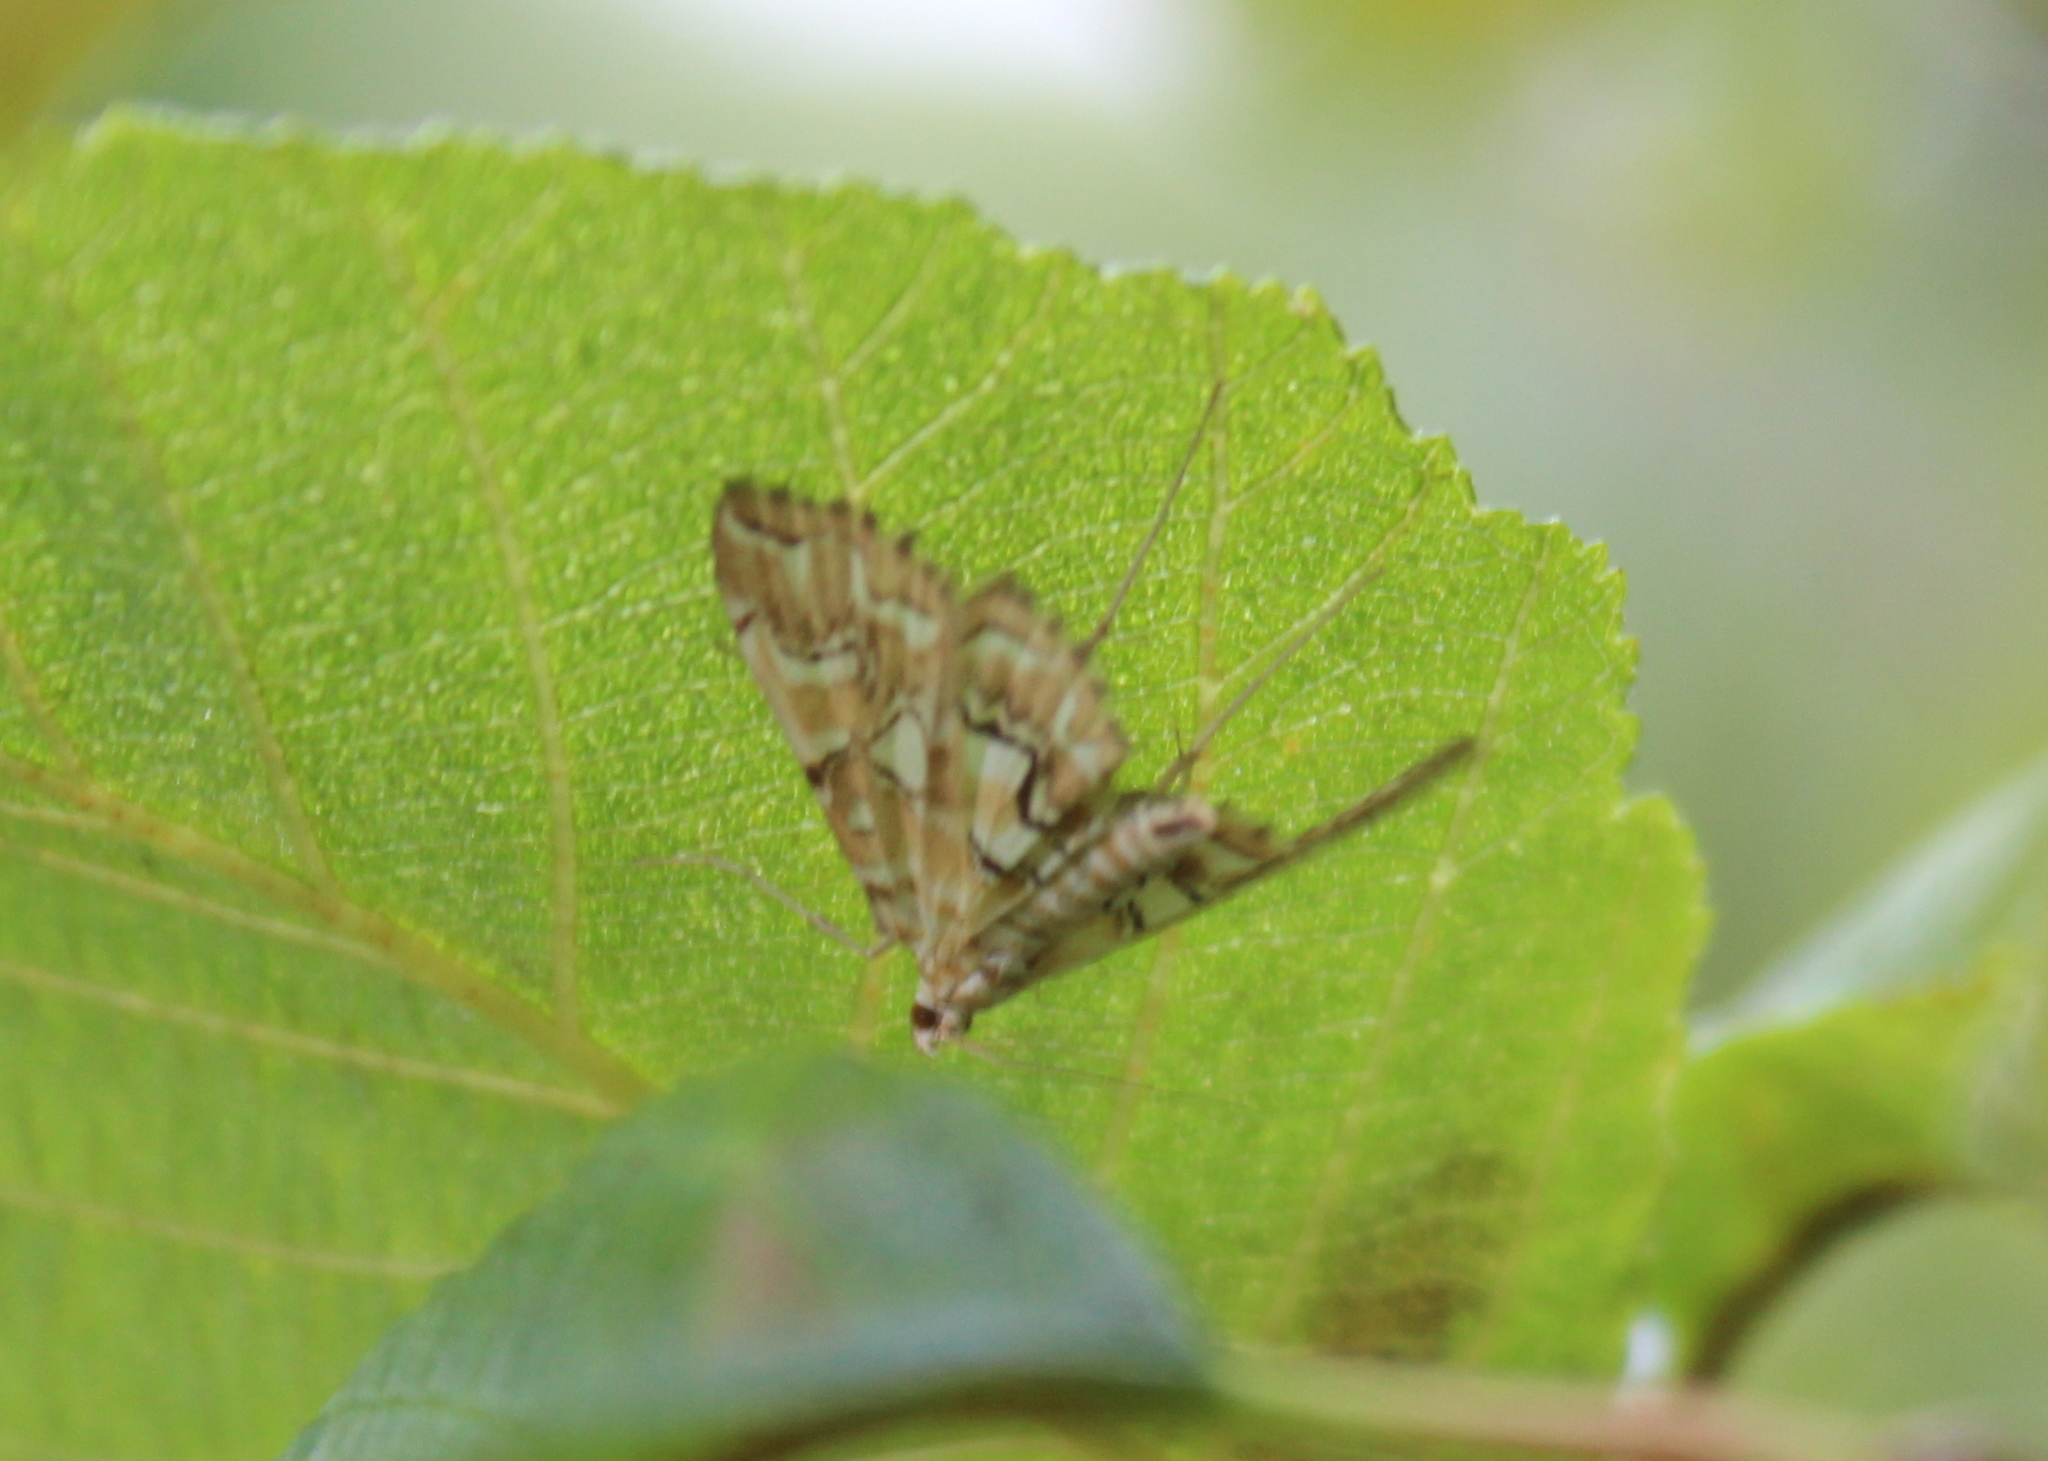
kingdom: Animalia
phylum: Arthropoda
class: Insecta
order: Lepidoptera
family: Crambidae
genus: Elophila
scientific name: Elophila icciusalis
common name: Pondside pyralid moth
